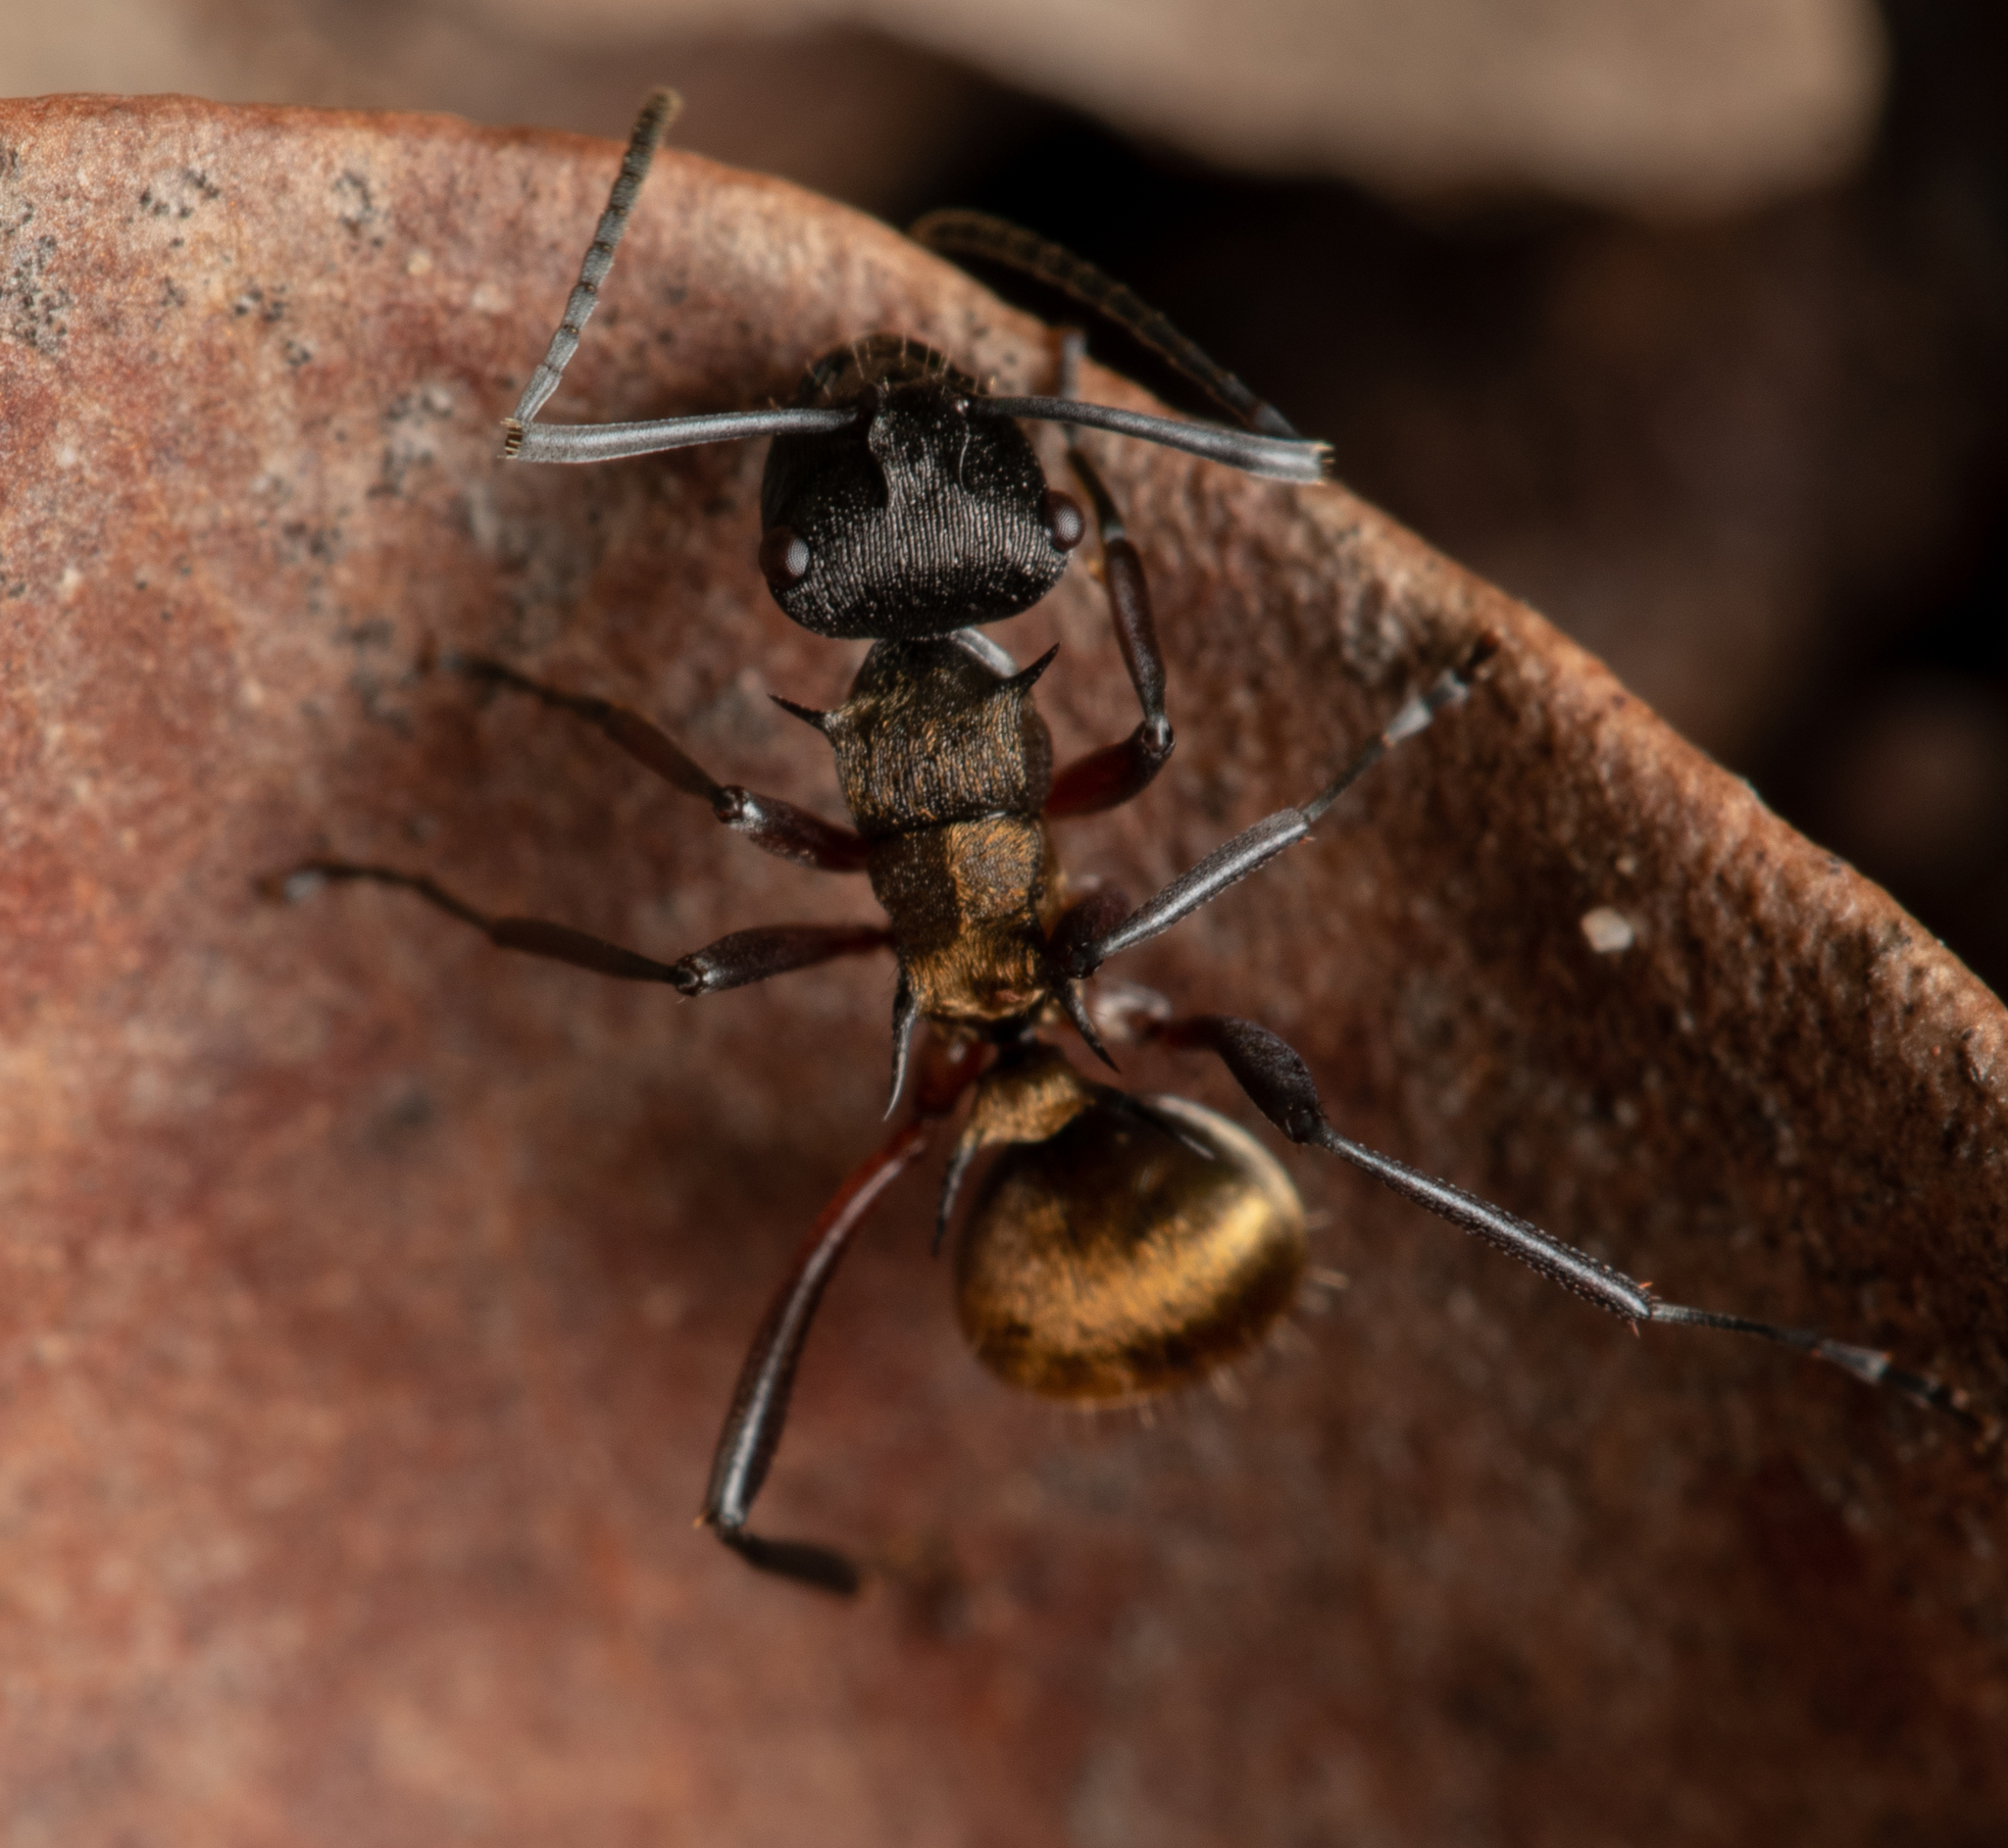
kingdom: Animalia
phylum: Arthropoda
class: Insecta
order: Hymenoptera
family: Formicidae
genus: Polyrhachis
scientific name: Polyrhachis rufifemur
